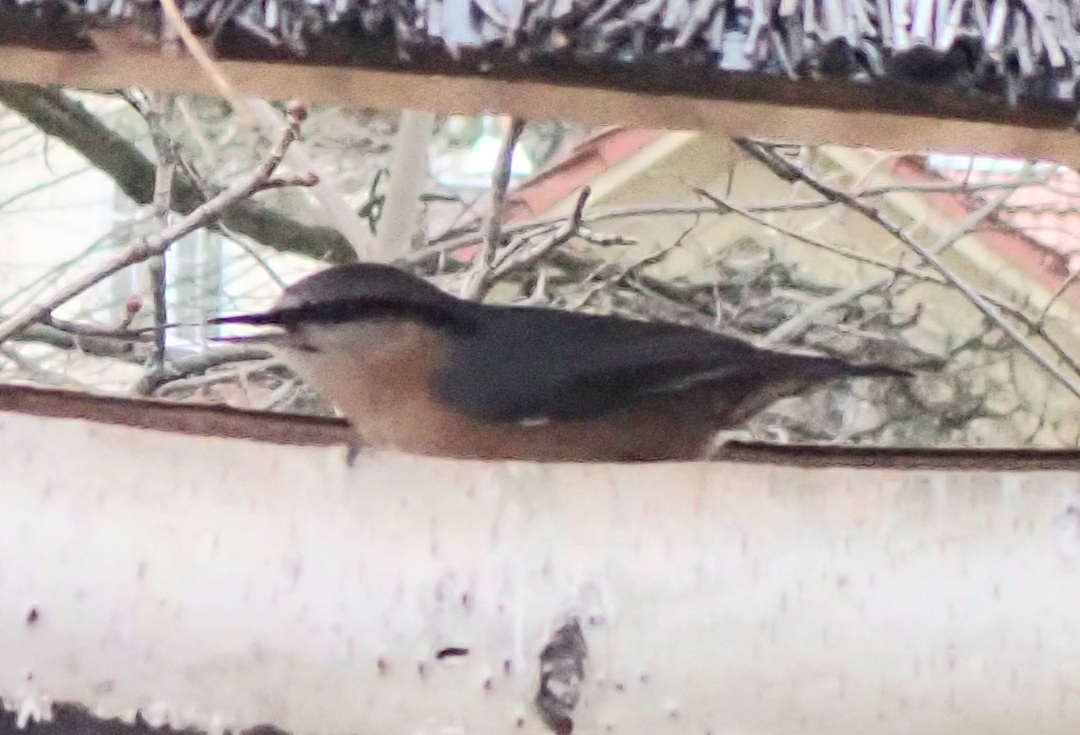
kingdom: Animalia
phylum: Chordata
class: Aves
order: Passeriformes
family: Sittidae
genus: Sitta
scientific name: Sitta europaea
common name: Eurasian nuthatch
